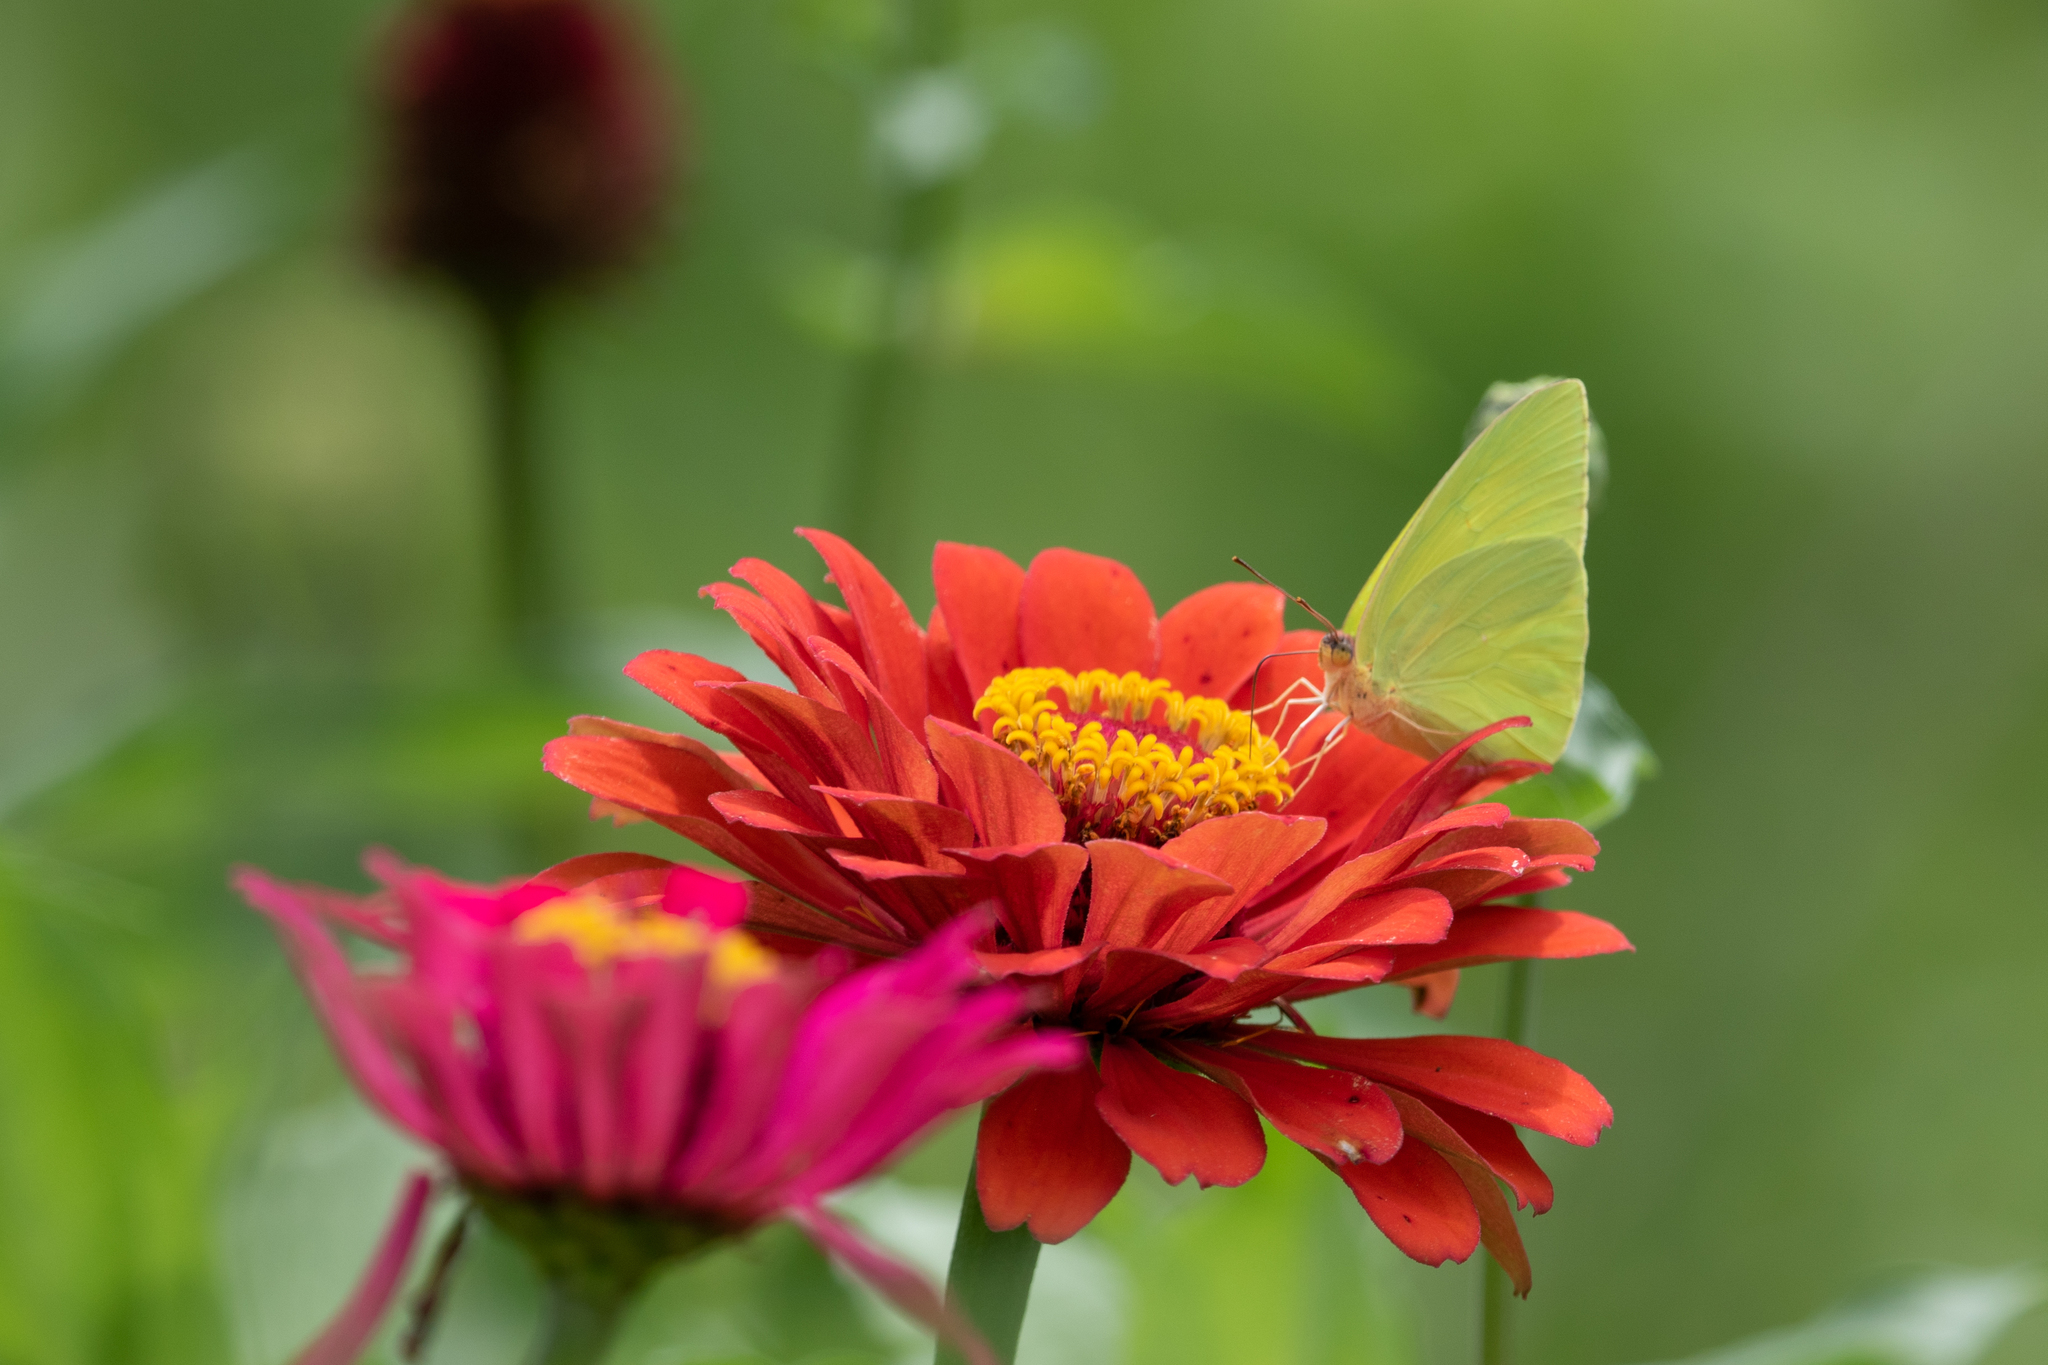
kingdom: Animalia
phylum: Arthropoda
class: Insecta
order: Lepidoptera
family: Pieridae
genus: Phoebis
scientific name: Phoebis sennae
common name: Cloudless sulphur
